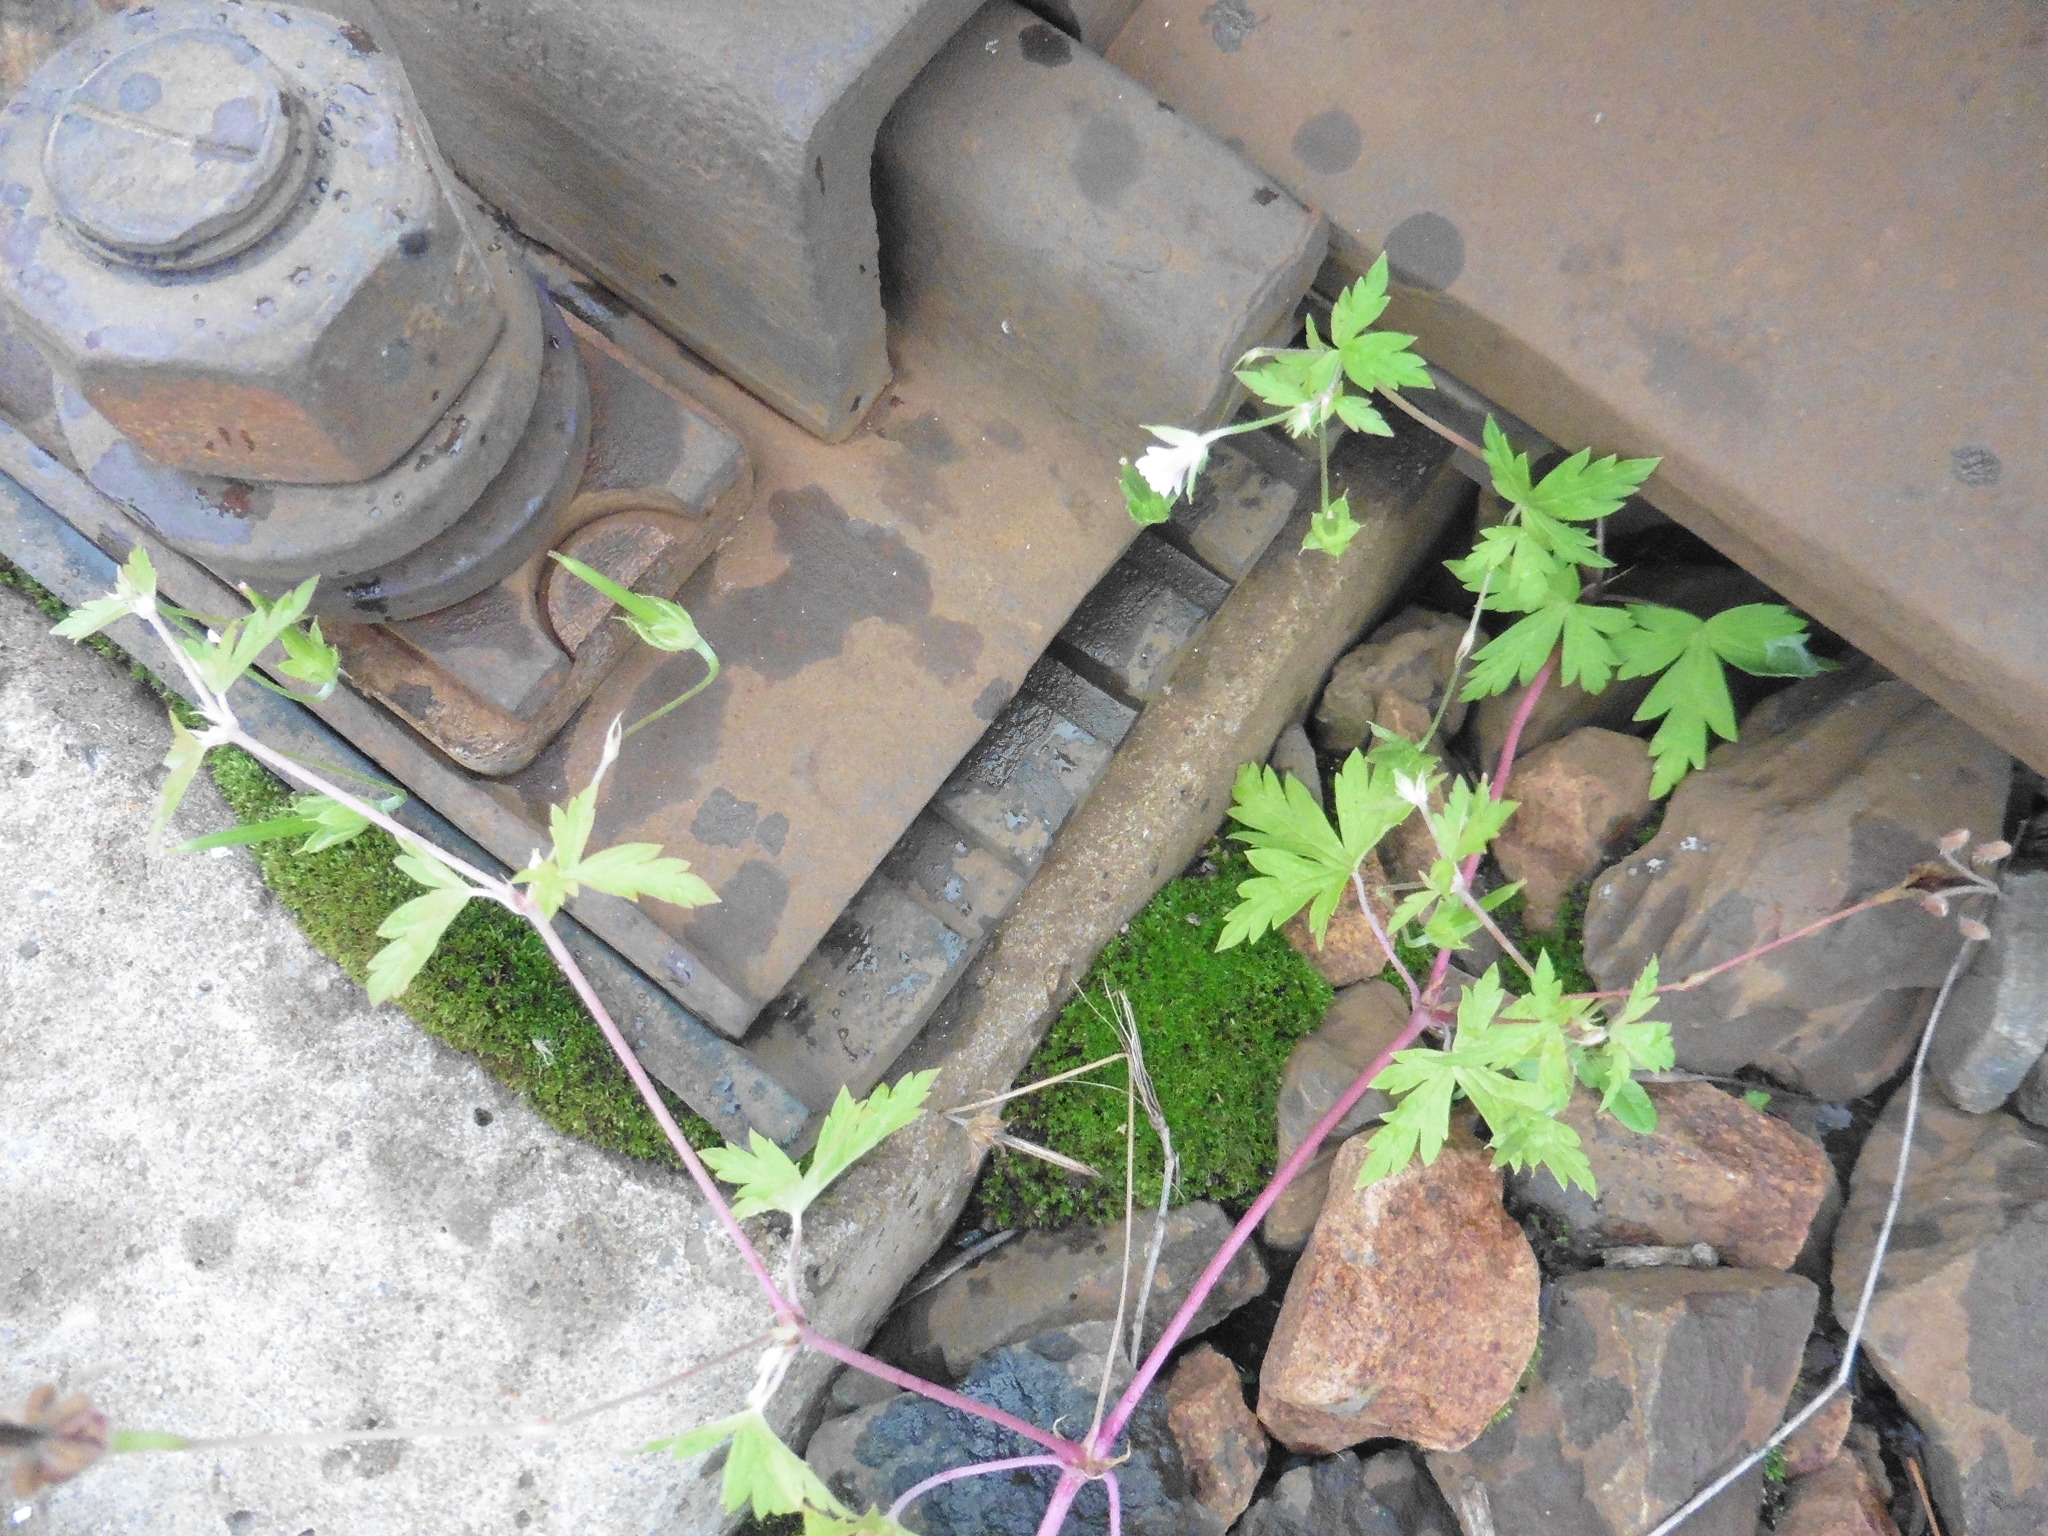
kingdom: Plantae
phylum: Tracheophyta
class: Magnoliopsida
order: Geraniales
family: Geraniaceae
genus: Geranium
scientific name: Geranium sibiricum
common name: Siberian crane's-bill
